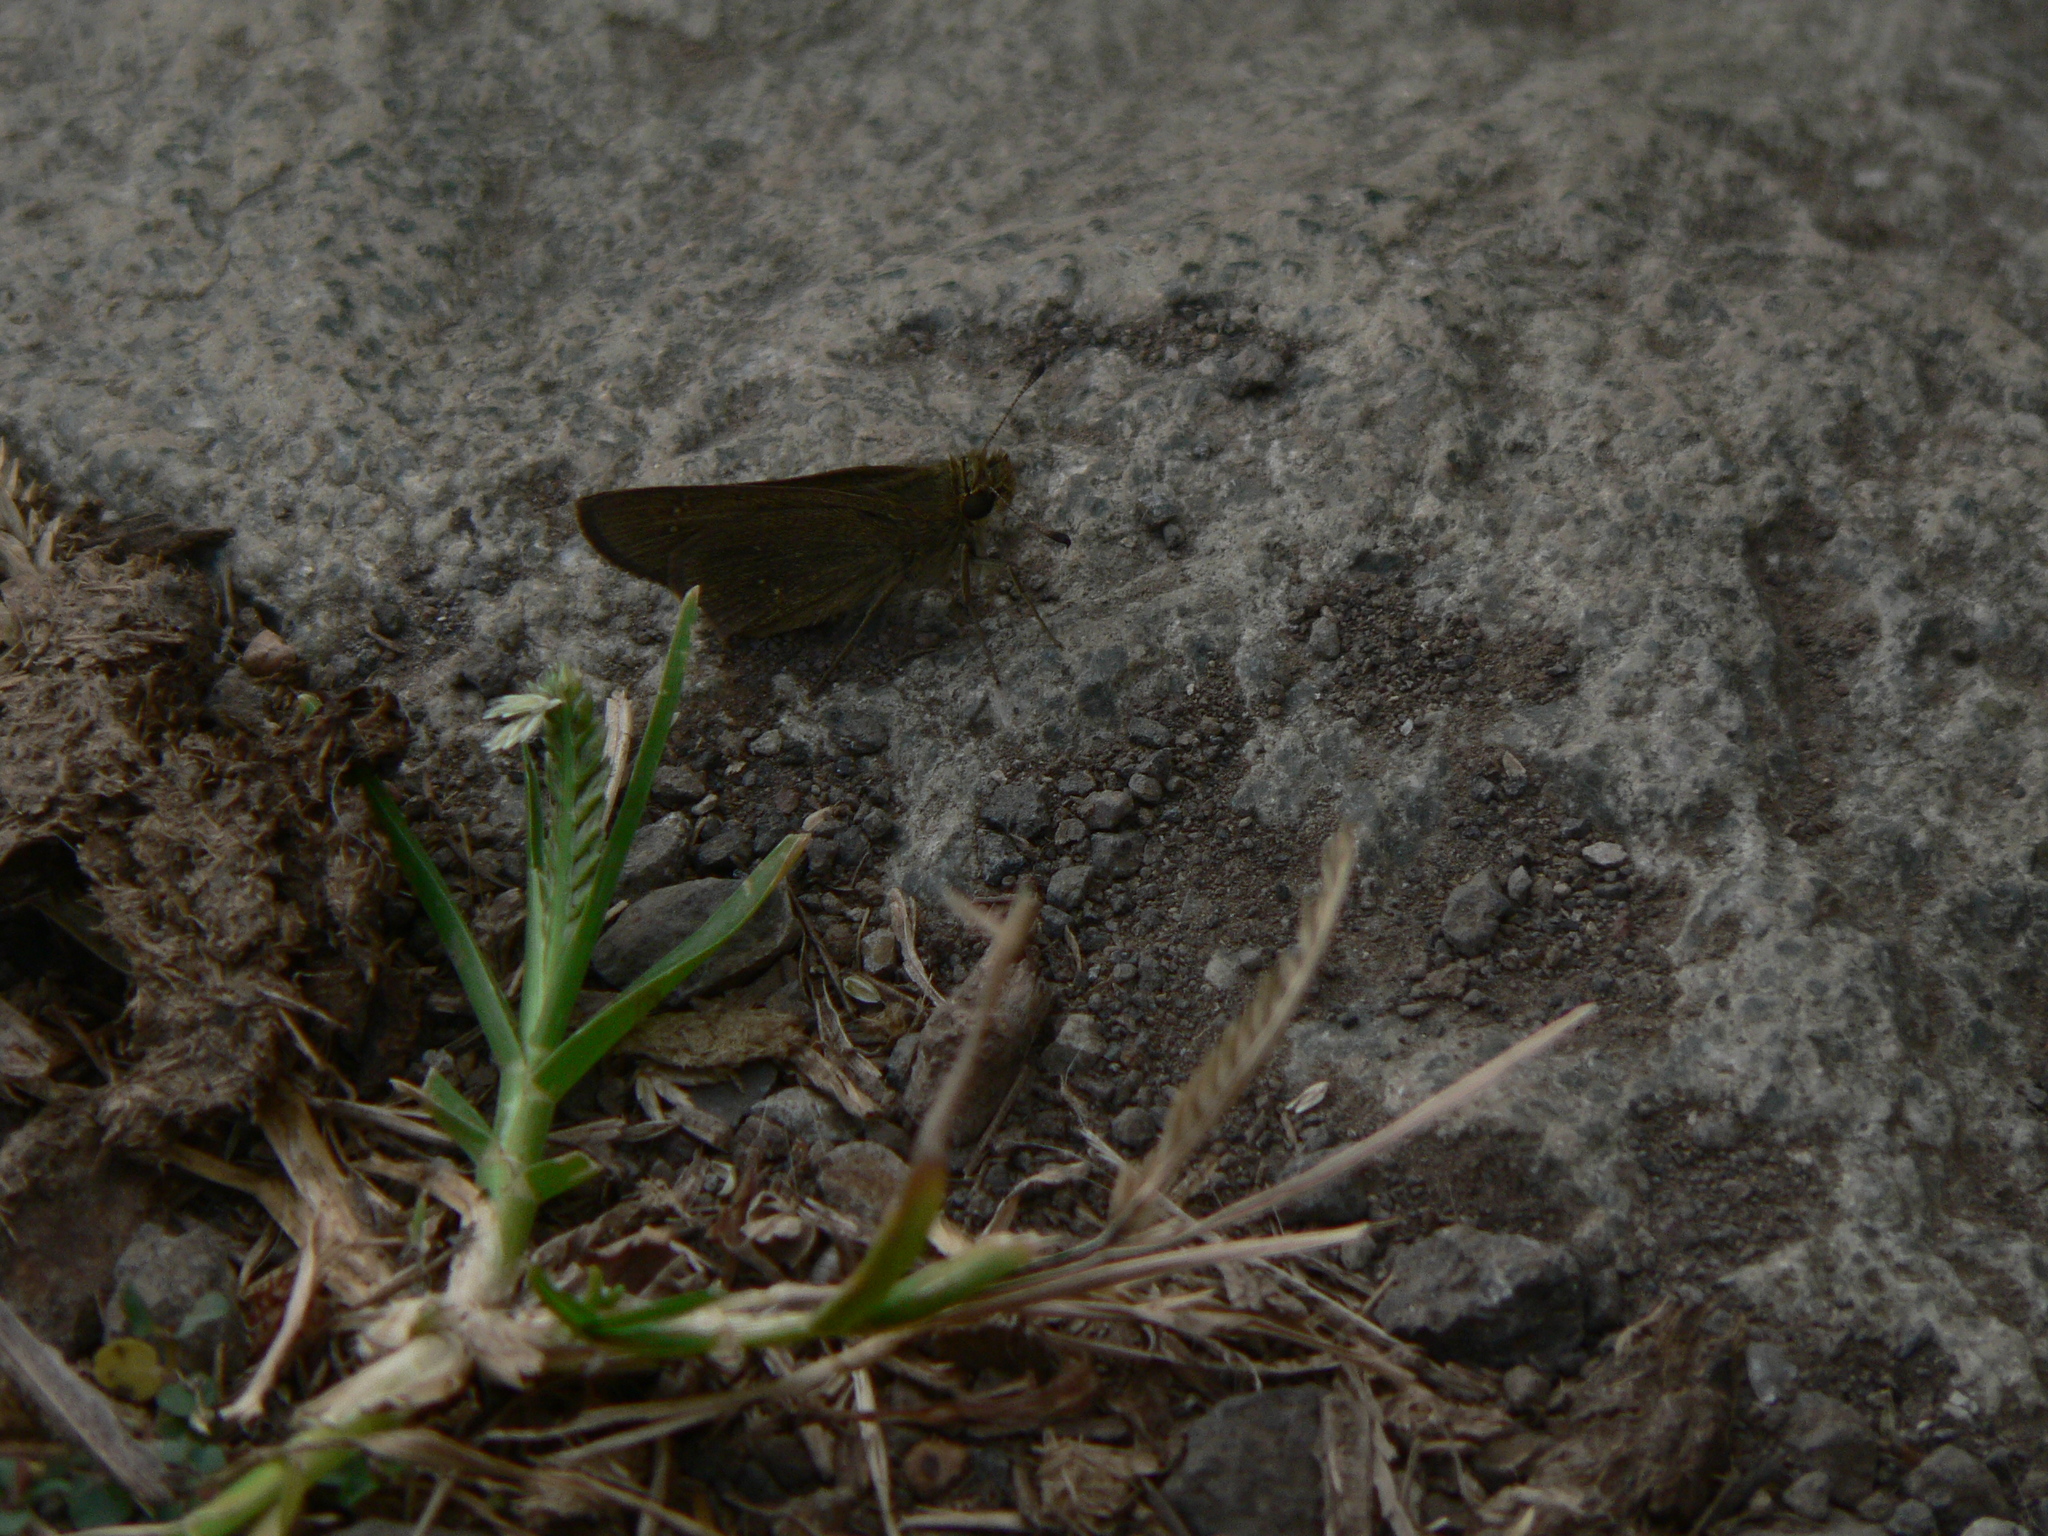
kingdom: Animalia
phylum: Arthropoda
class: Insecta
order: Lepidoptera
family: Hesperiidae
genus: Borbo
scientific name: Borbo borbonica
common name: Olive-haired swift
